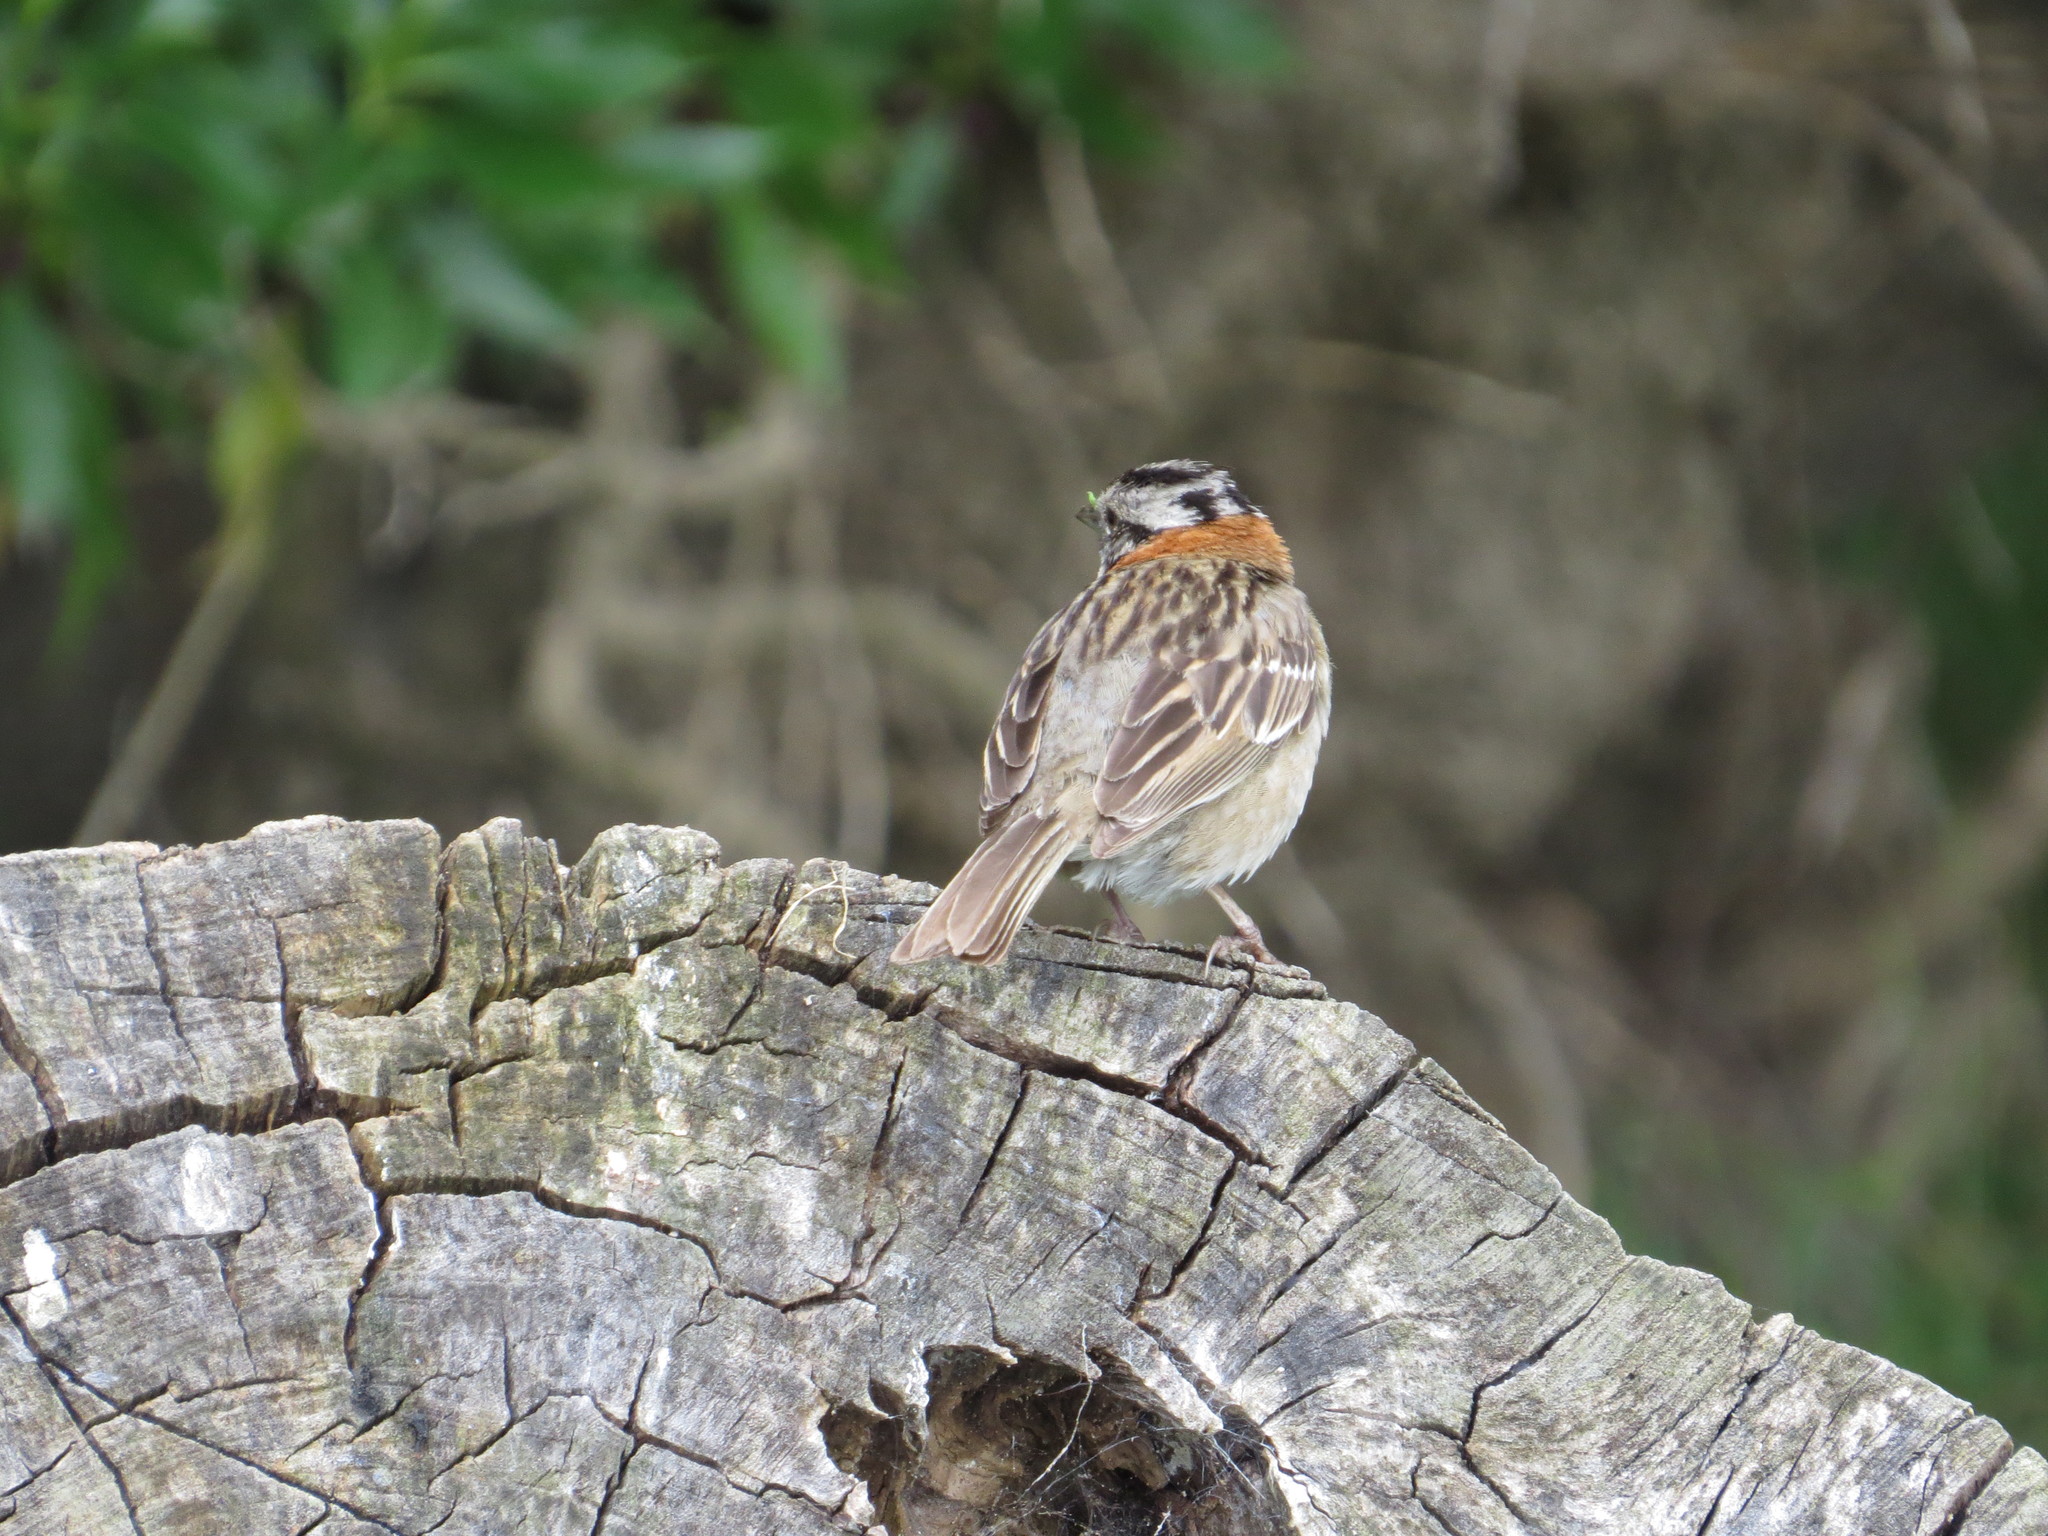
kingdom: Animalia
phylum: Chordata
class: Aves
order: Passeriformes
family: Passerellidae
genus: Zonotrichia
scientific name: Zonotrichia capensis
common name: Rufous-collared sparrow
